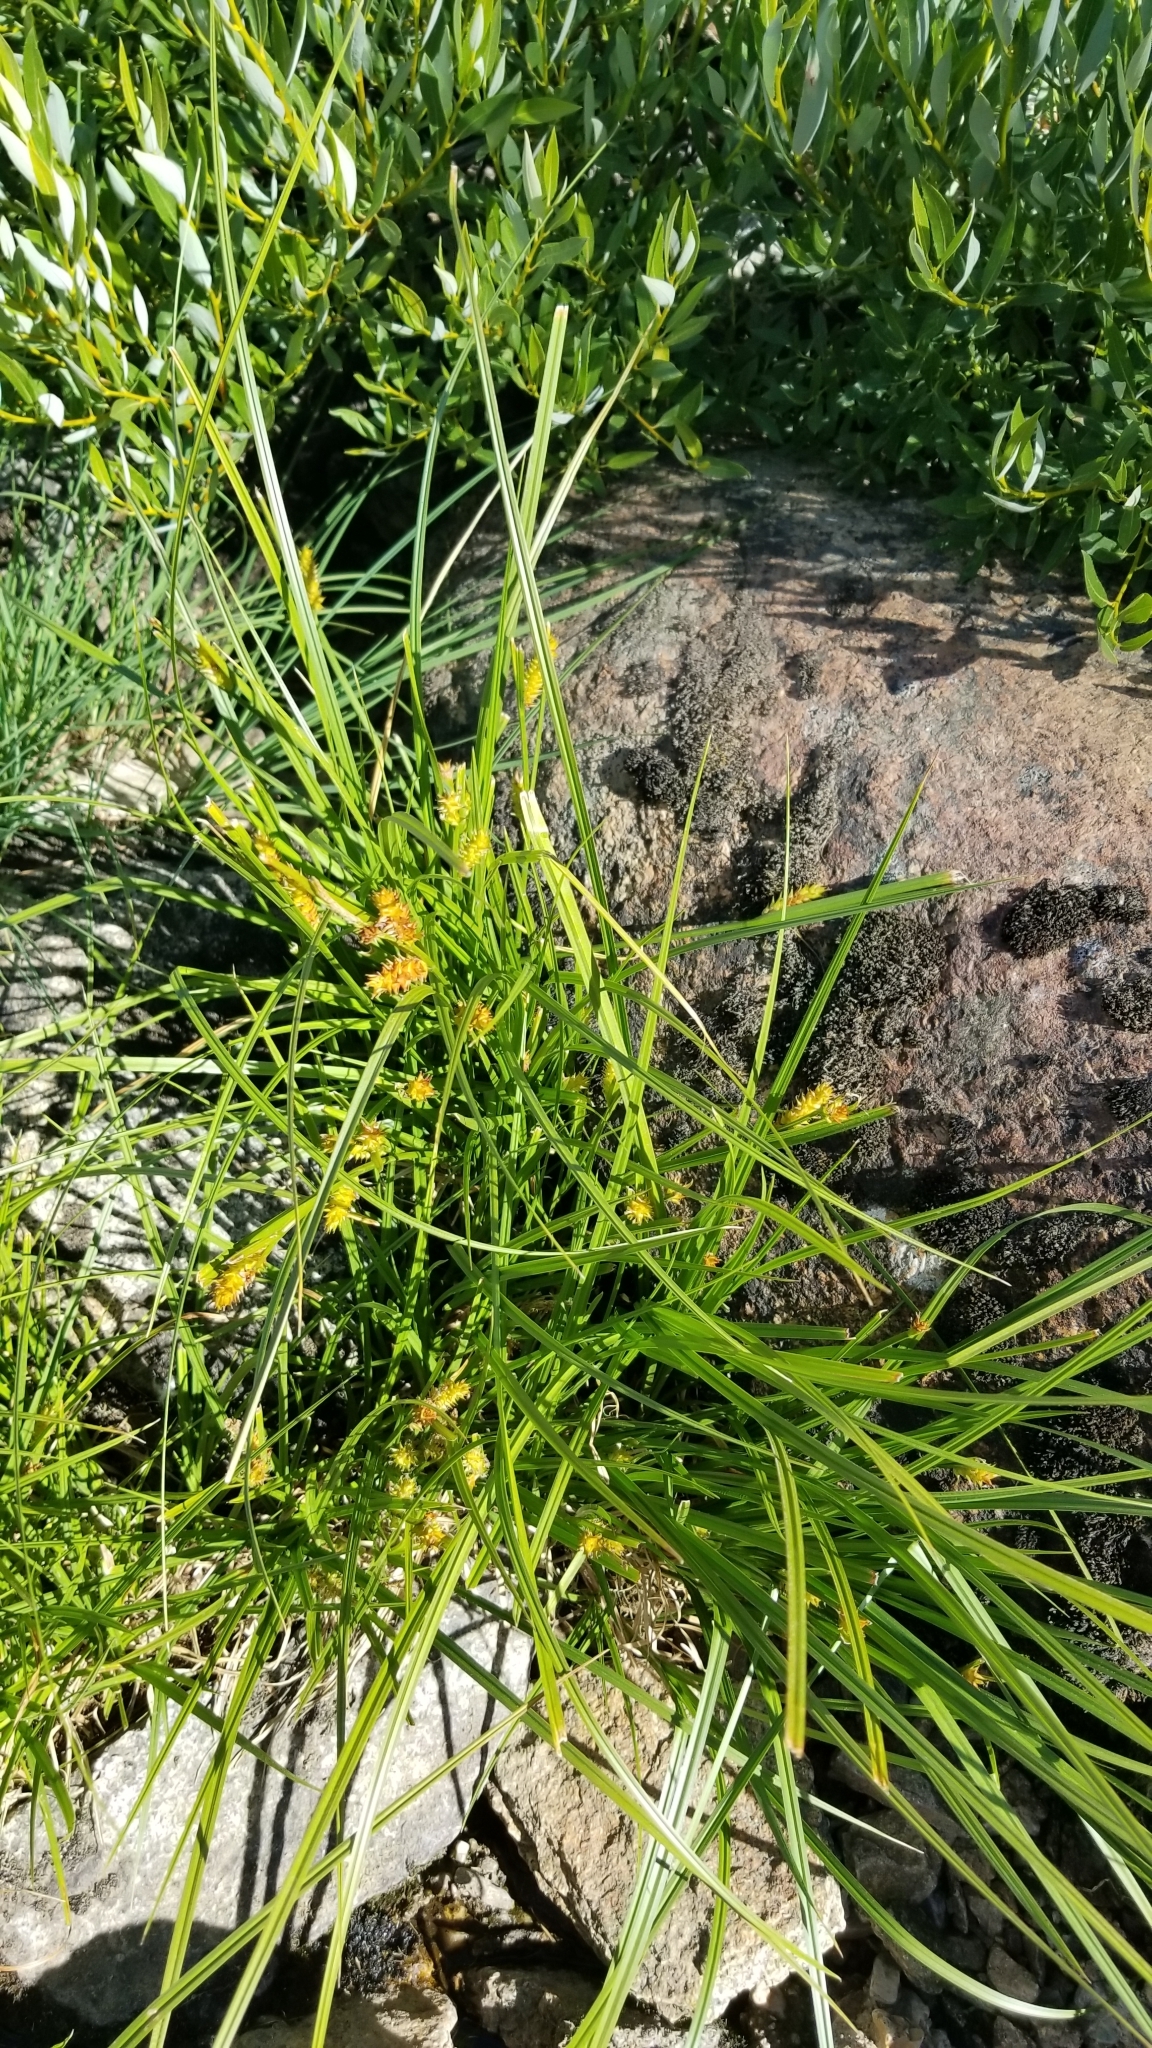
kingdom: Plantae
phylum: Tracheophyta
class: Liliopsida
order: Poales
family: Cyperaceae
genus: Carex
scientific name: Carex utriculata
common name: Beaked sedge
